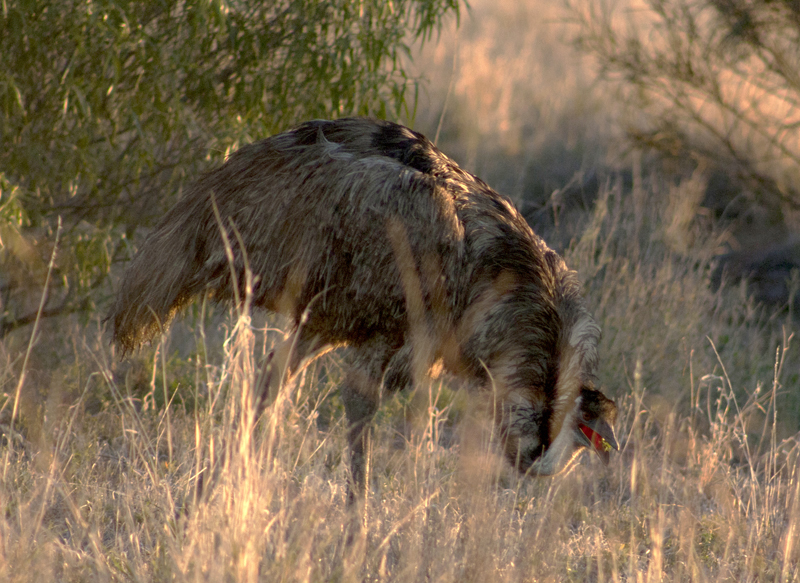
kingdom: Animalia
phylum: Chordata
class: Aves
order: Casuariiformes
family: Dromaiidae
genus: Dromaius
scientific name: Dromaius novaehollandiae
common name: Emu
